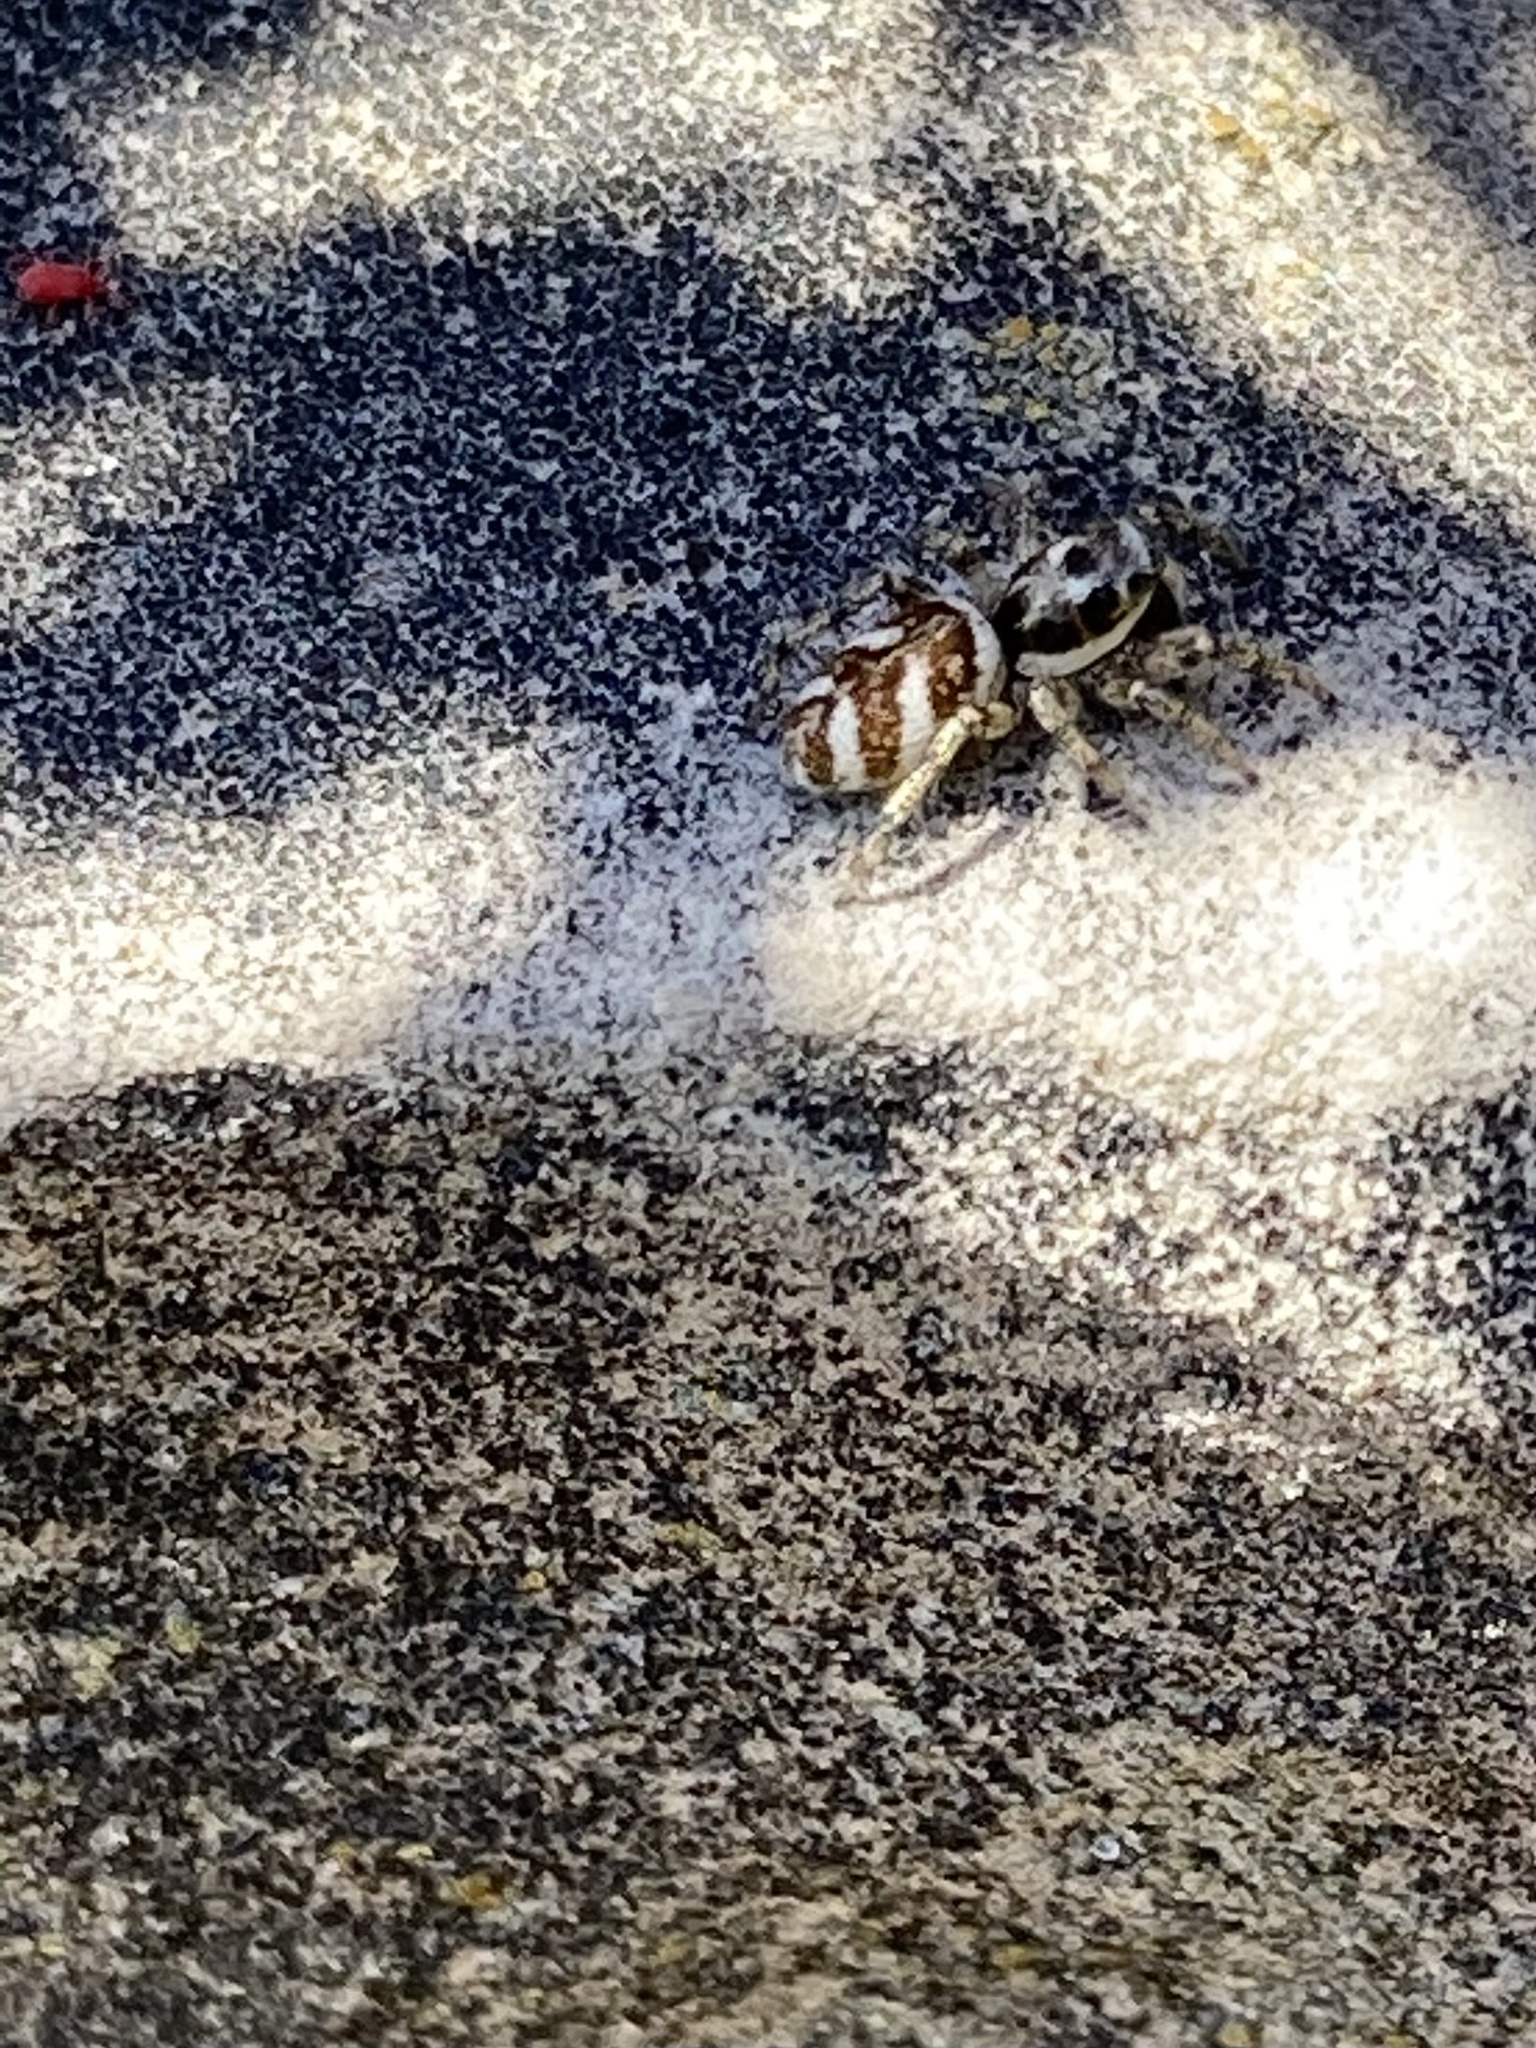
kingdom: Animalia
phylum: Arthropoda
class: Arachnida
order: Araneae
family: Salticidae
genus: Salticus
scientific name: Salticus scenicus
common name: Zebra jumper
